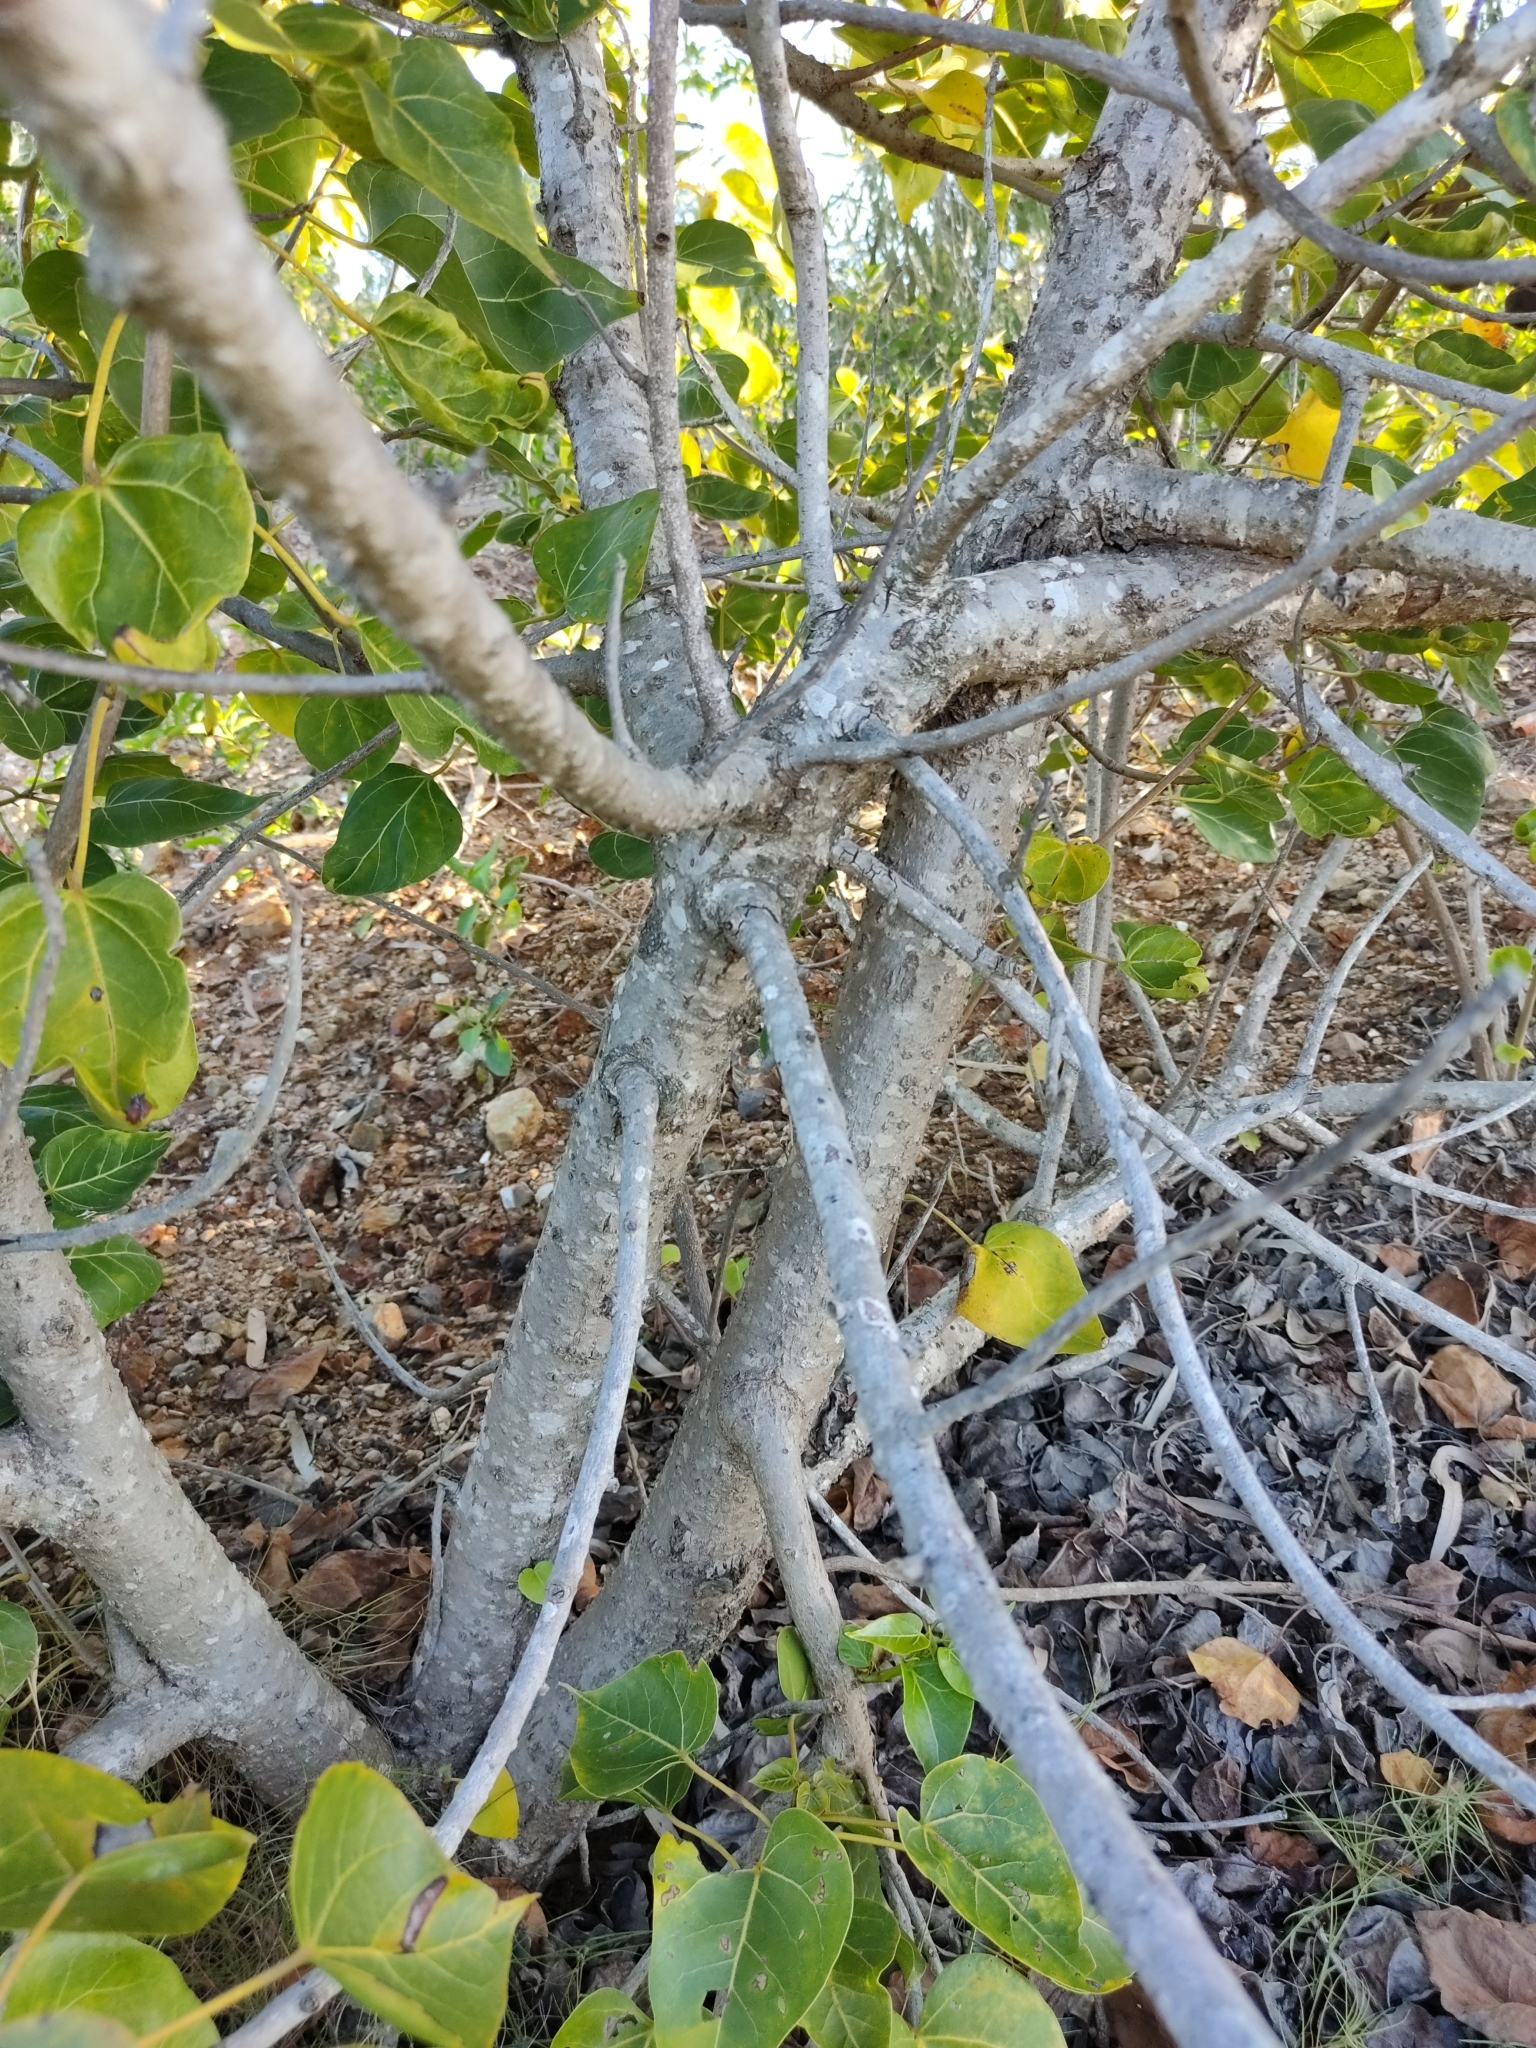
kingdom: Plantae
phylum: Tracheophyta
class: Magnoliopsida
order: Malvales
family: Malvaceae
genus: Thespesia
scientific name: Thespesia populnea
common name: Seaside mahoe
